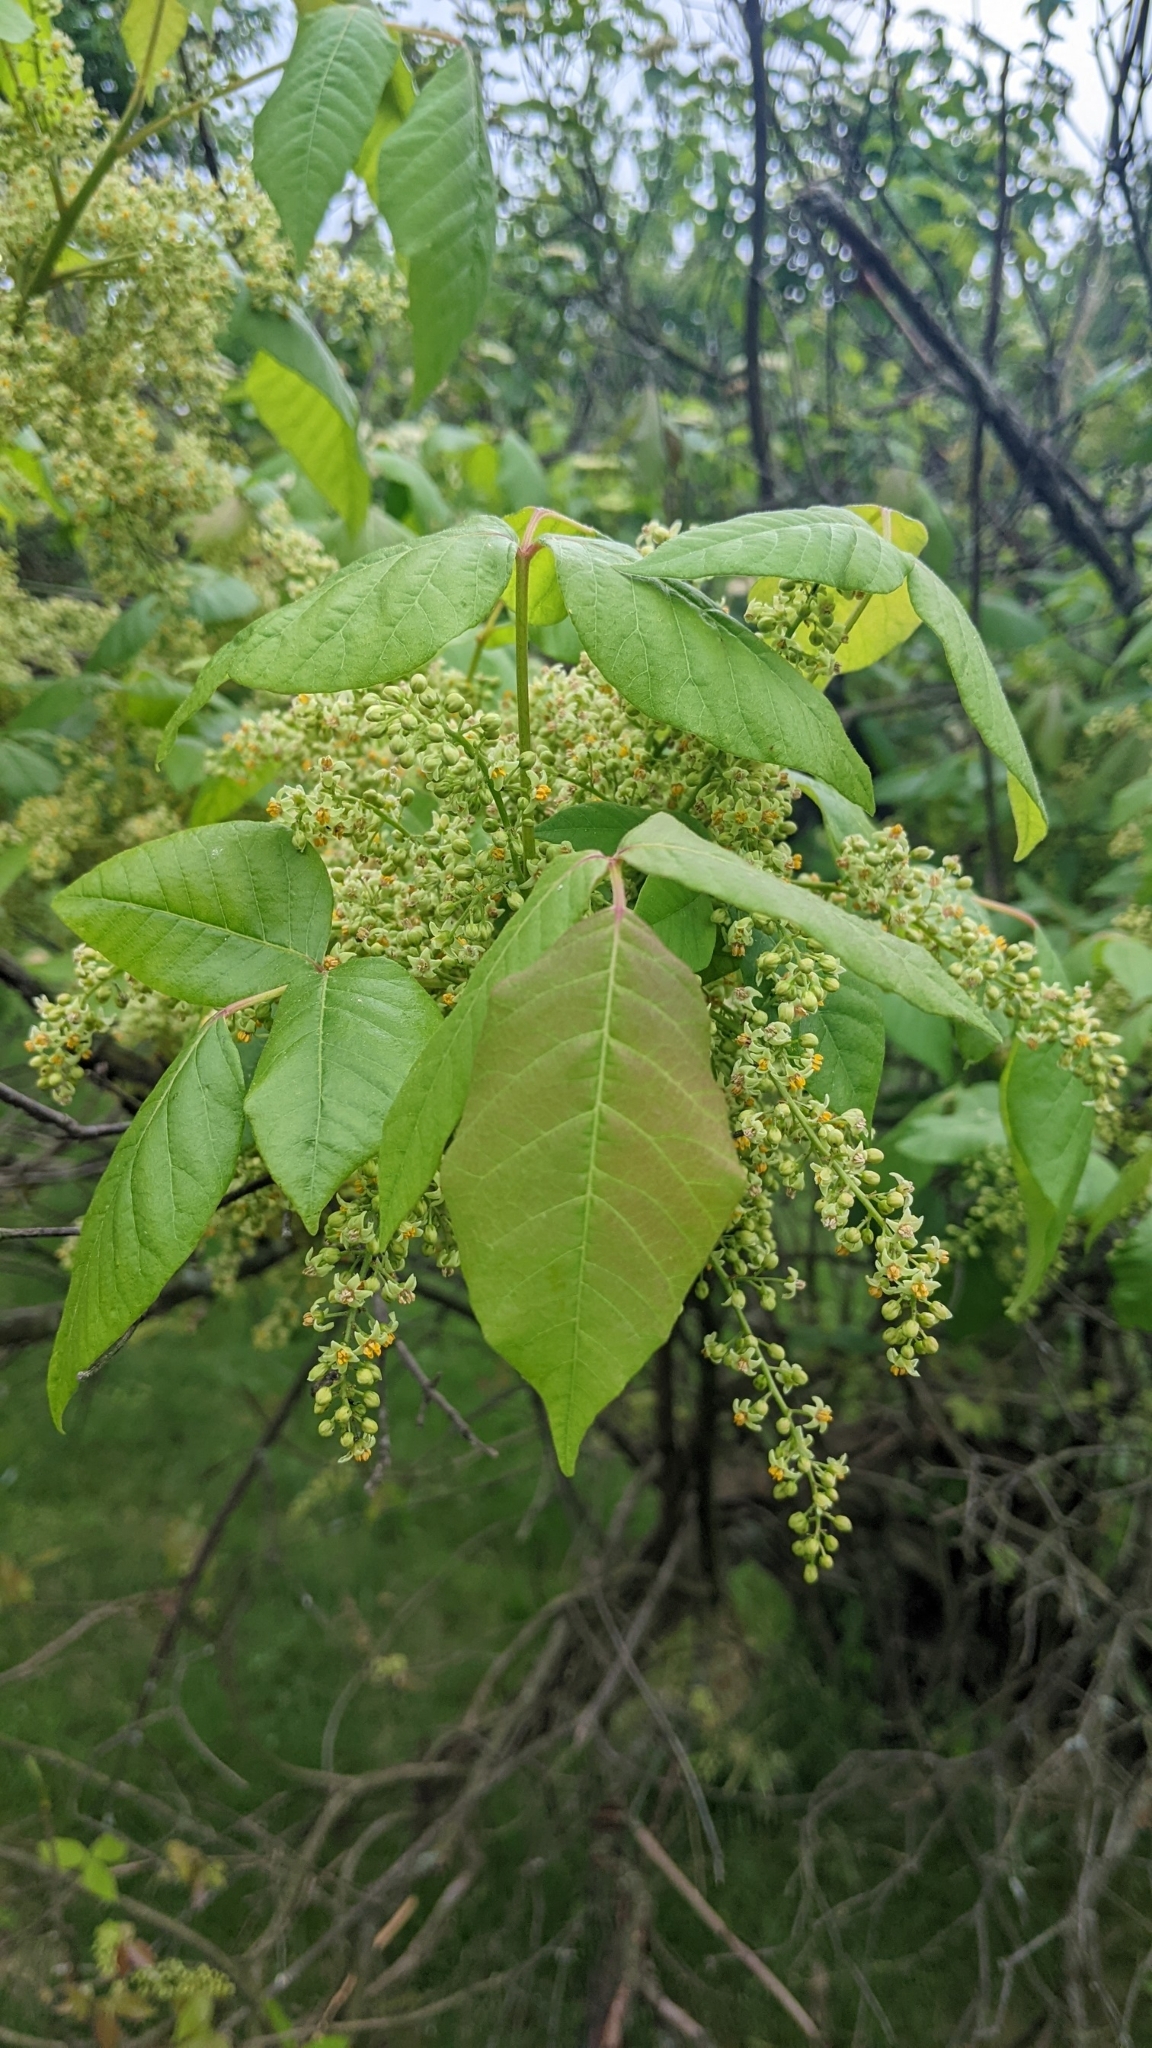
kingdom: Plantae
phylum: Tracheophyta
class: Magnoliopsida
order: Sapindales
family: Anacardiaceae
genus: Toxicodendron
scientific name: Toxicodendron radicans
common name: Poison ivy
